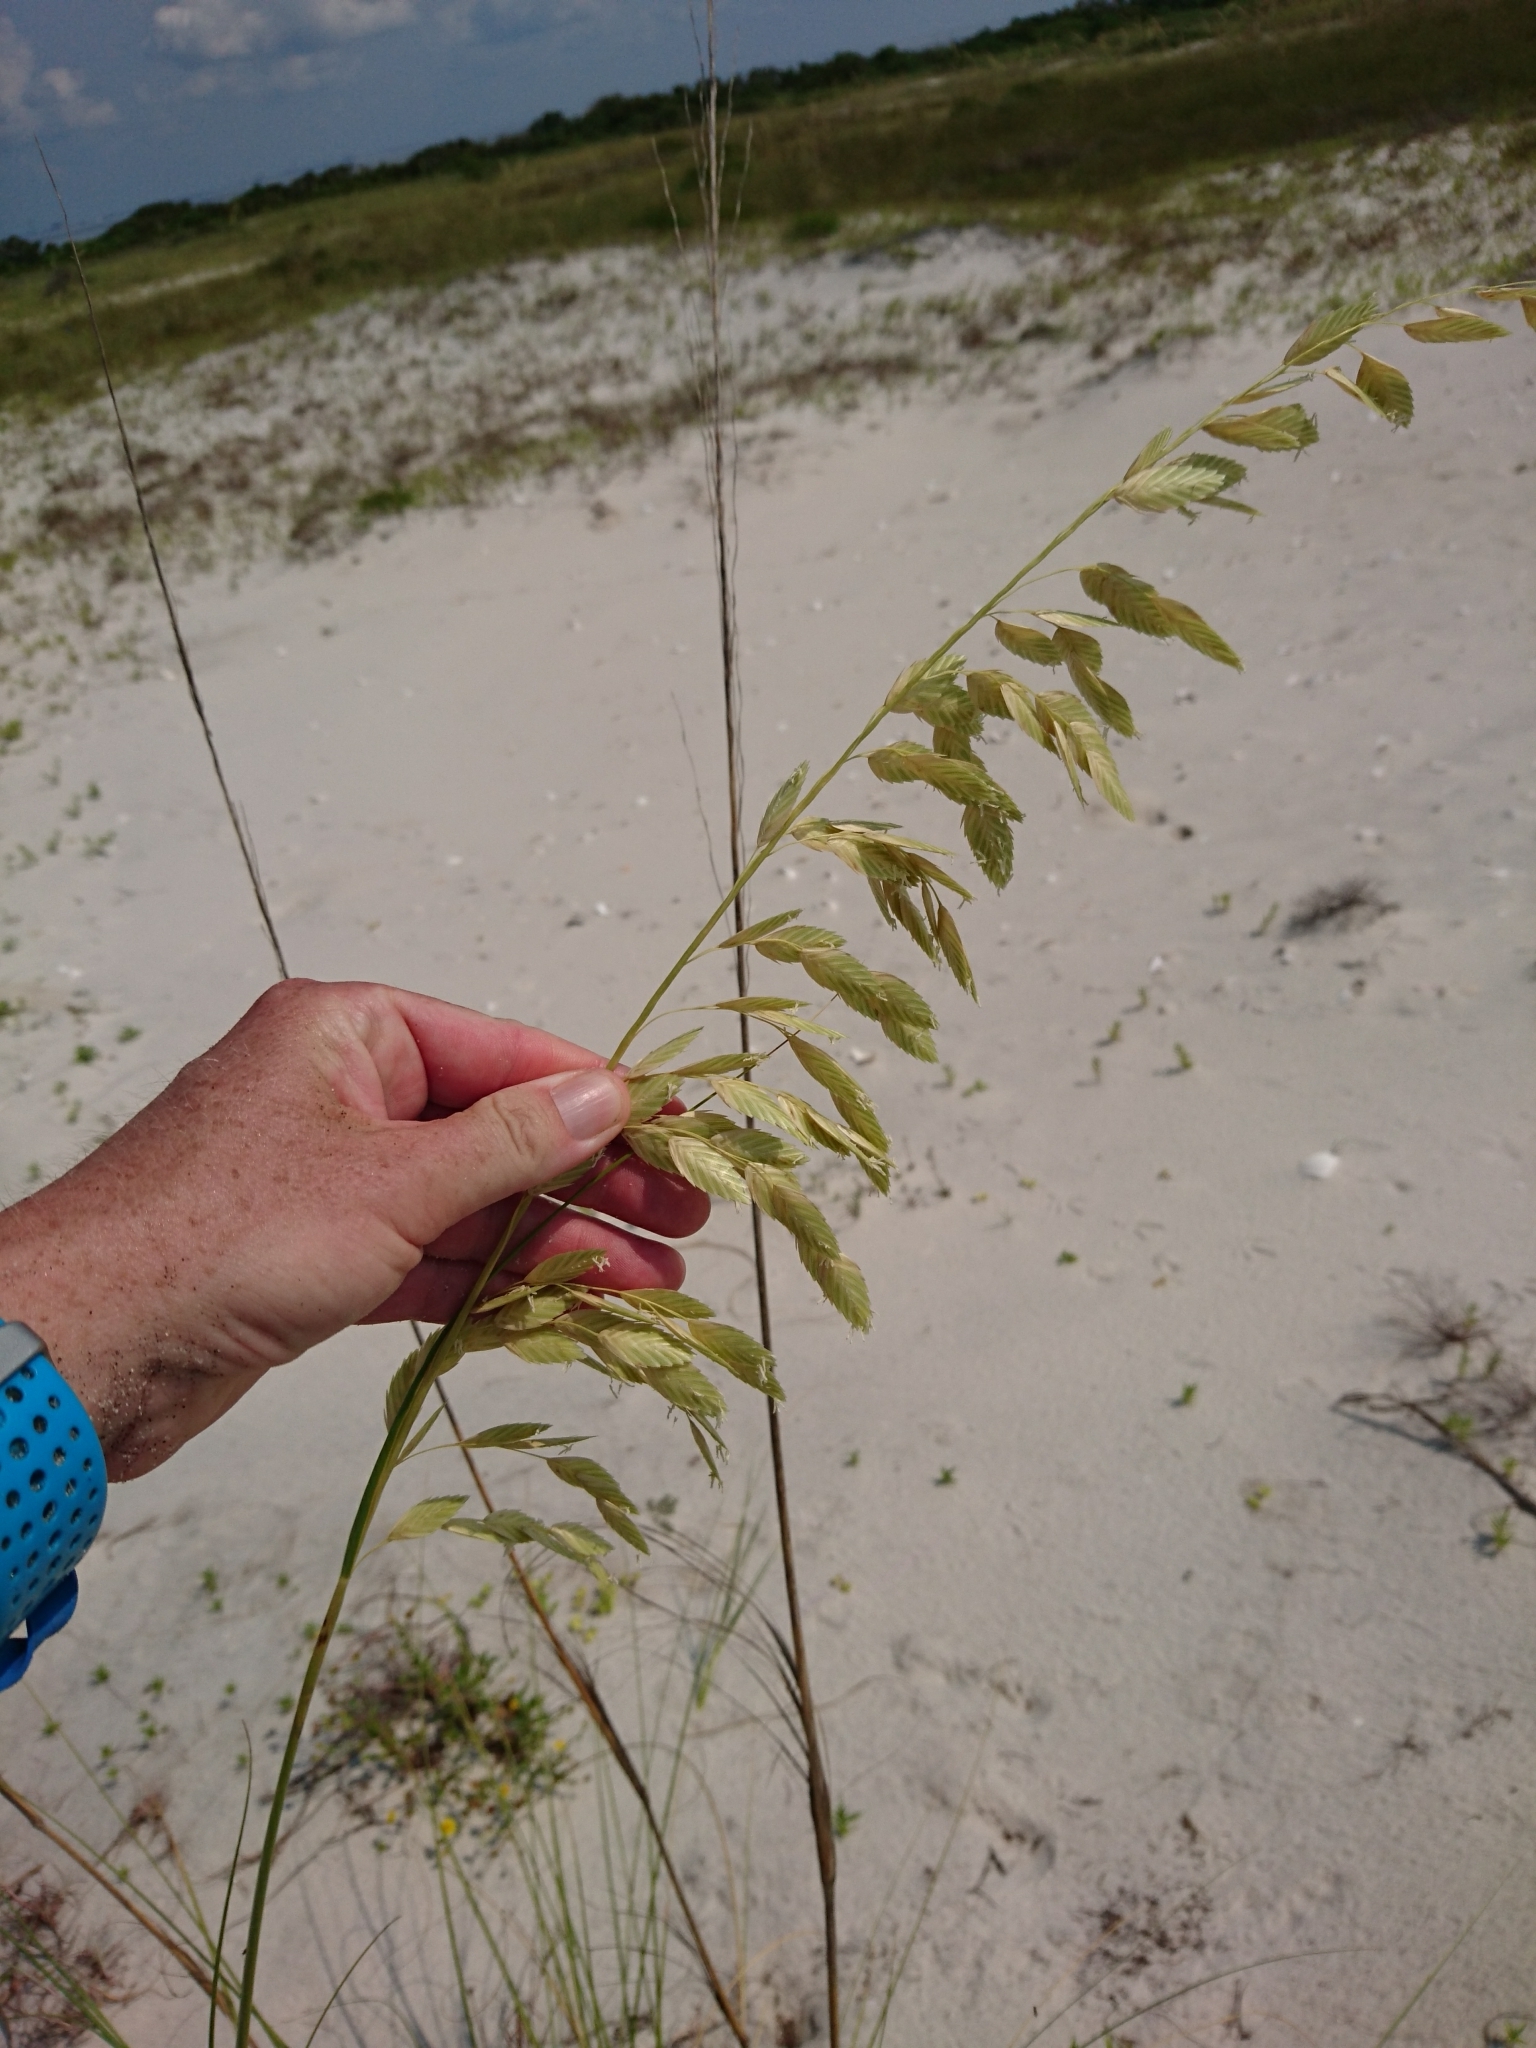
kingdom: Plantae
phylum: Tracheophyta
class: Liliopsida
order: Poales
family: Poaceae
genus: Uniola
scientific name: Uniola paniculata
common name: Seaside-oats
